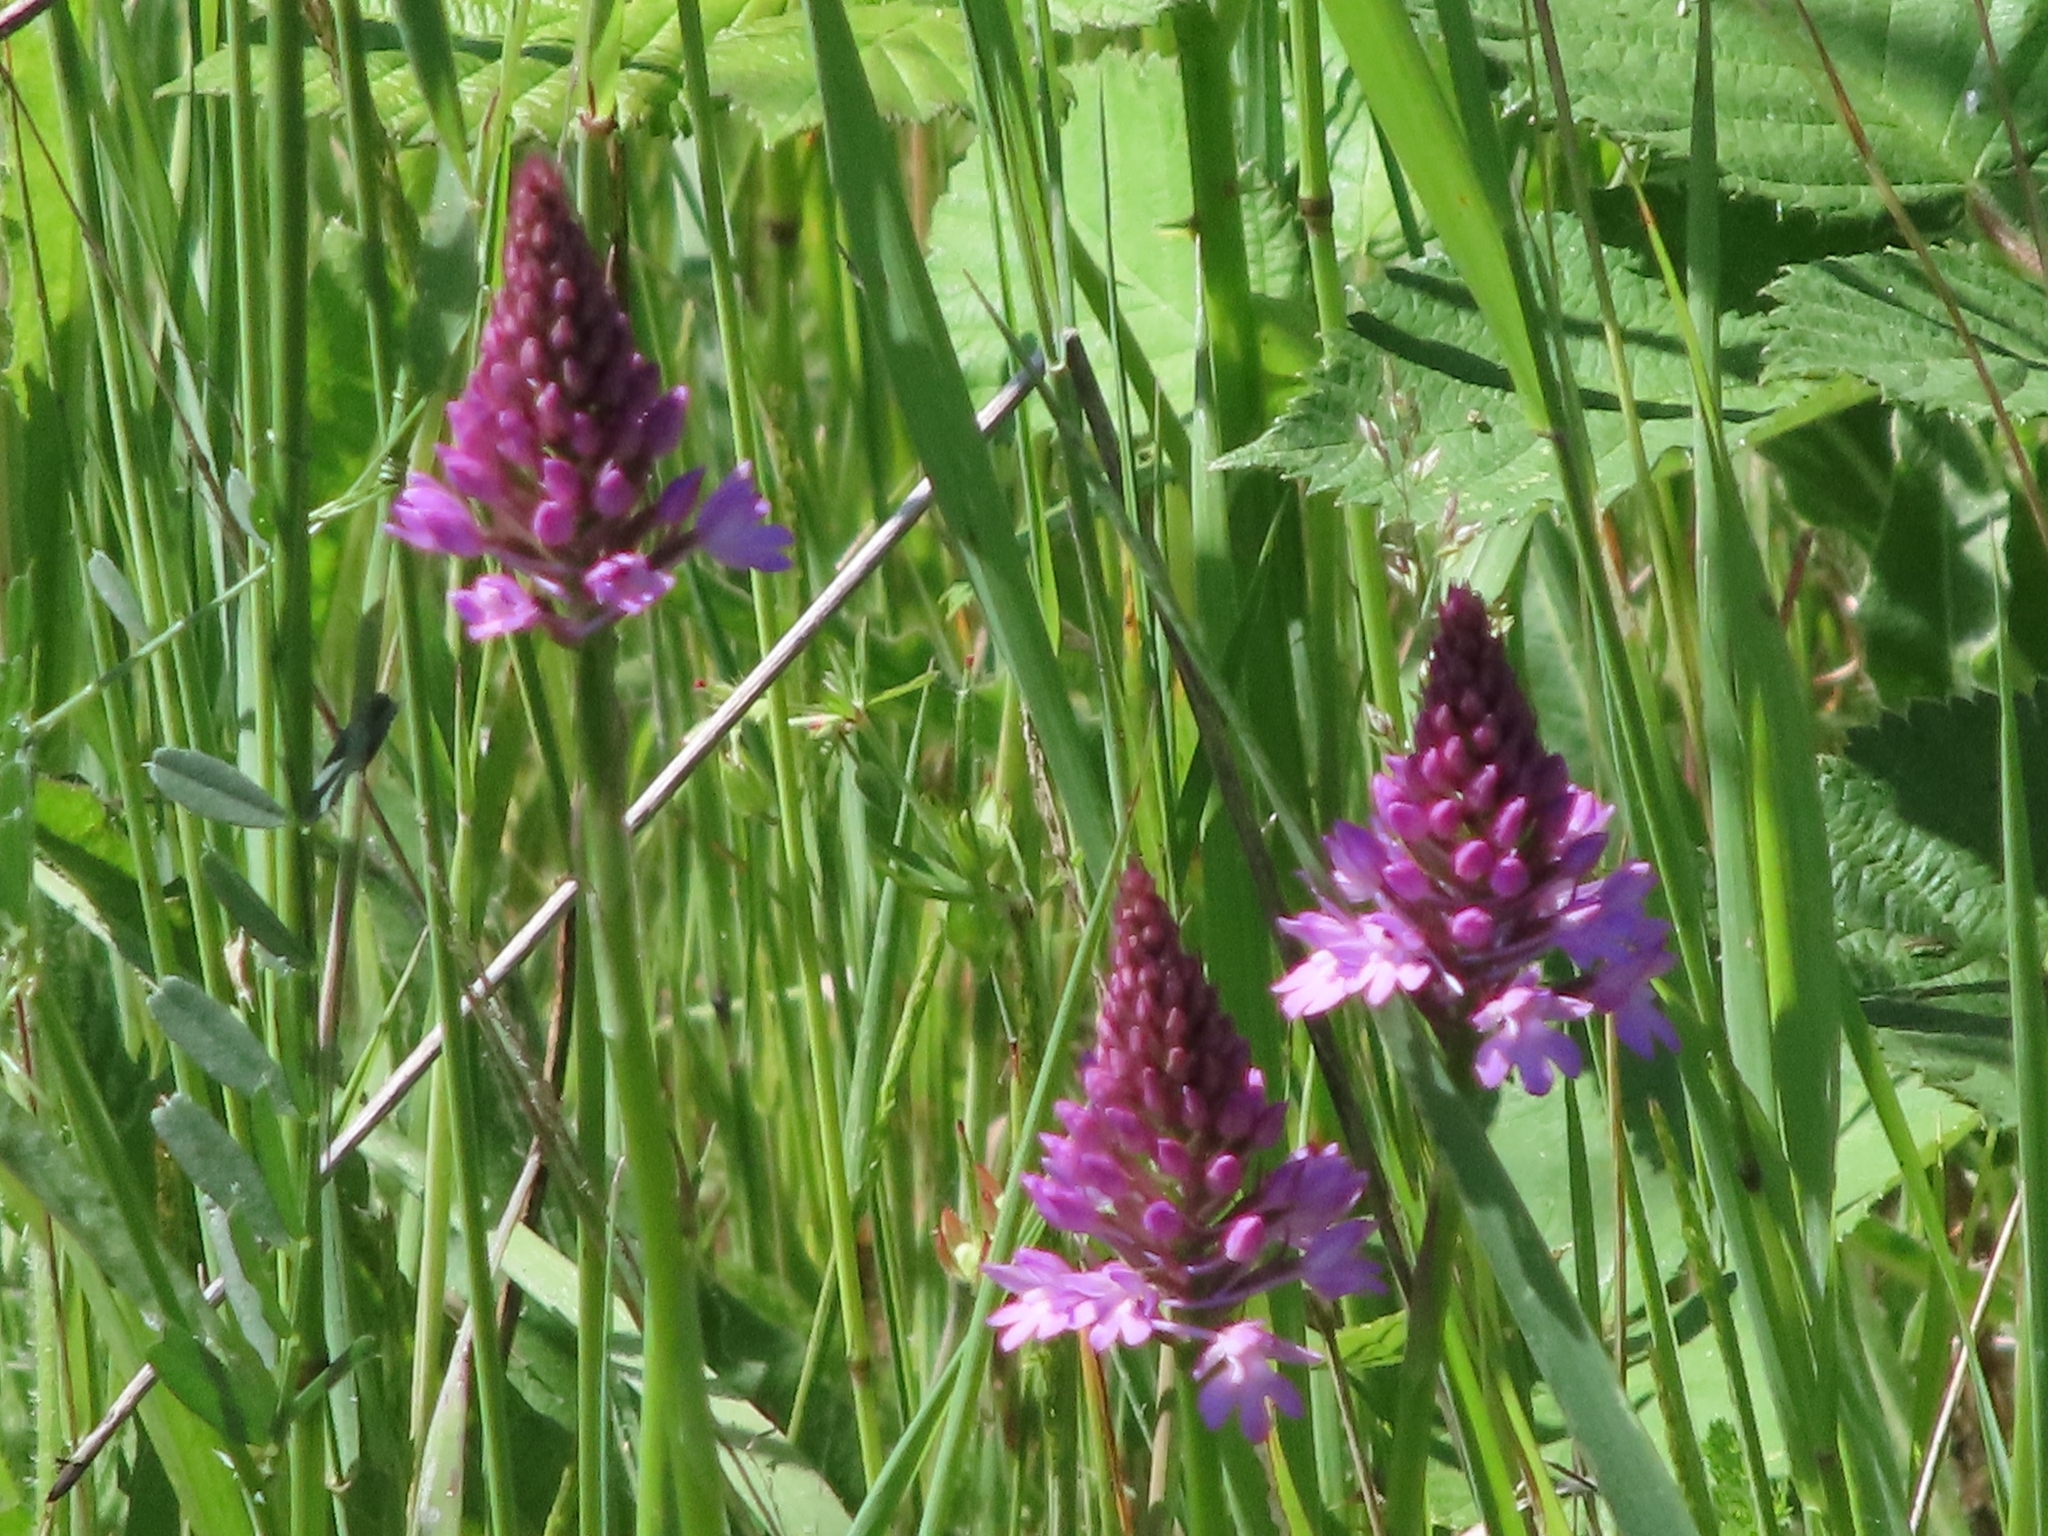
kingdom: Plantae
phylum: Tracheophyta
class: Liliopsida
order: Asparagales
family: Orchidaceae
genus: Anacamptis
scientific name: Anacamptis pyramidalis
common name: Pyramidal orchid
